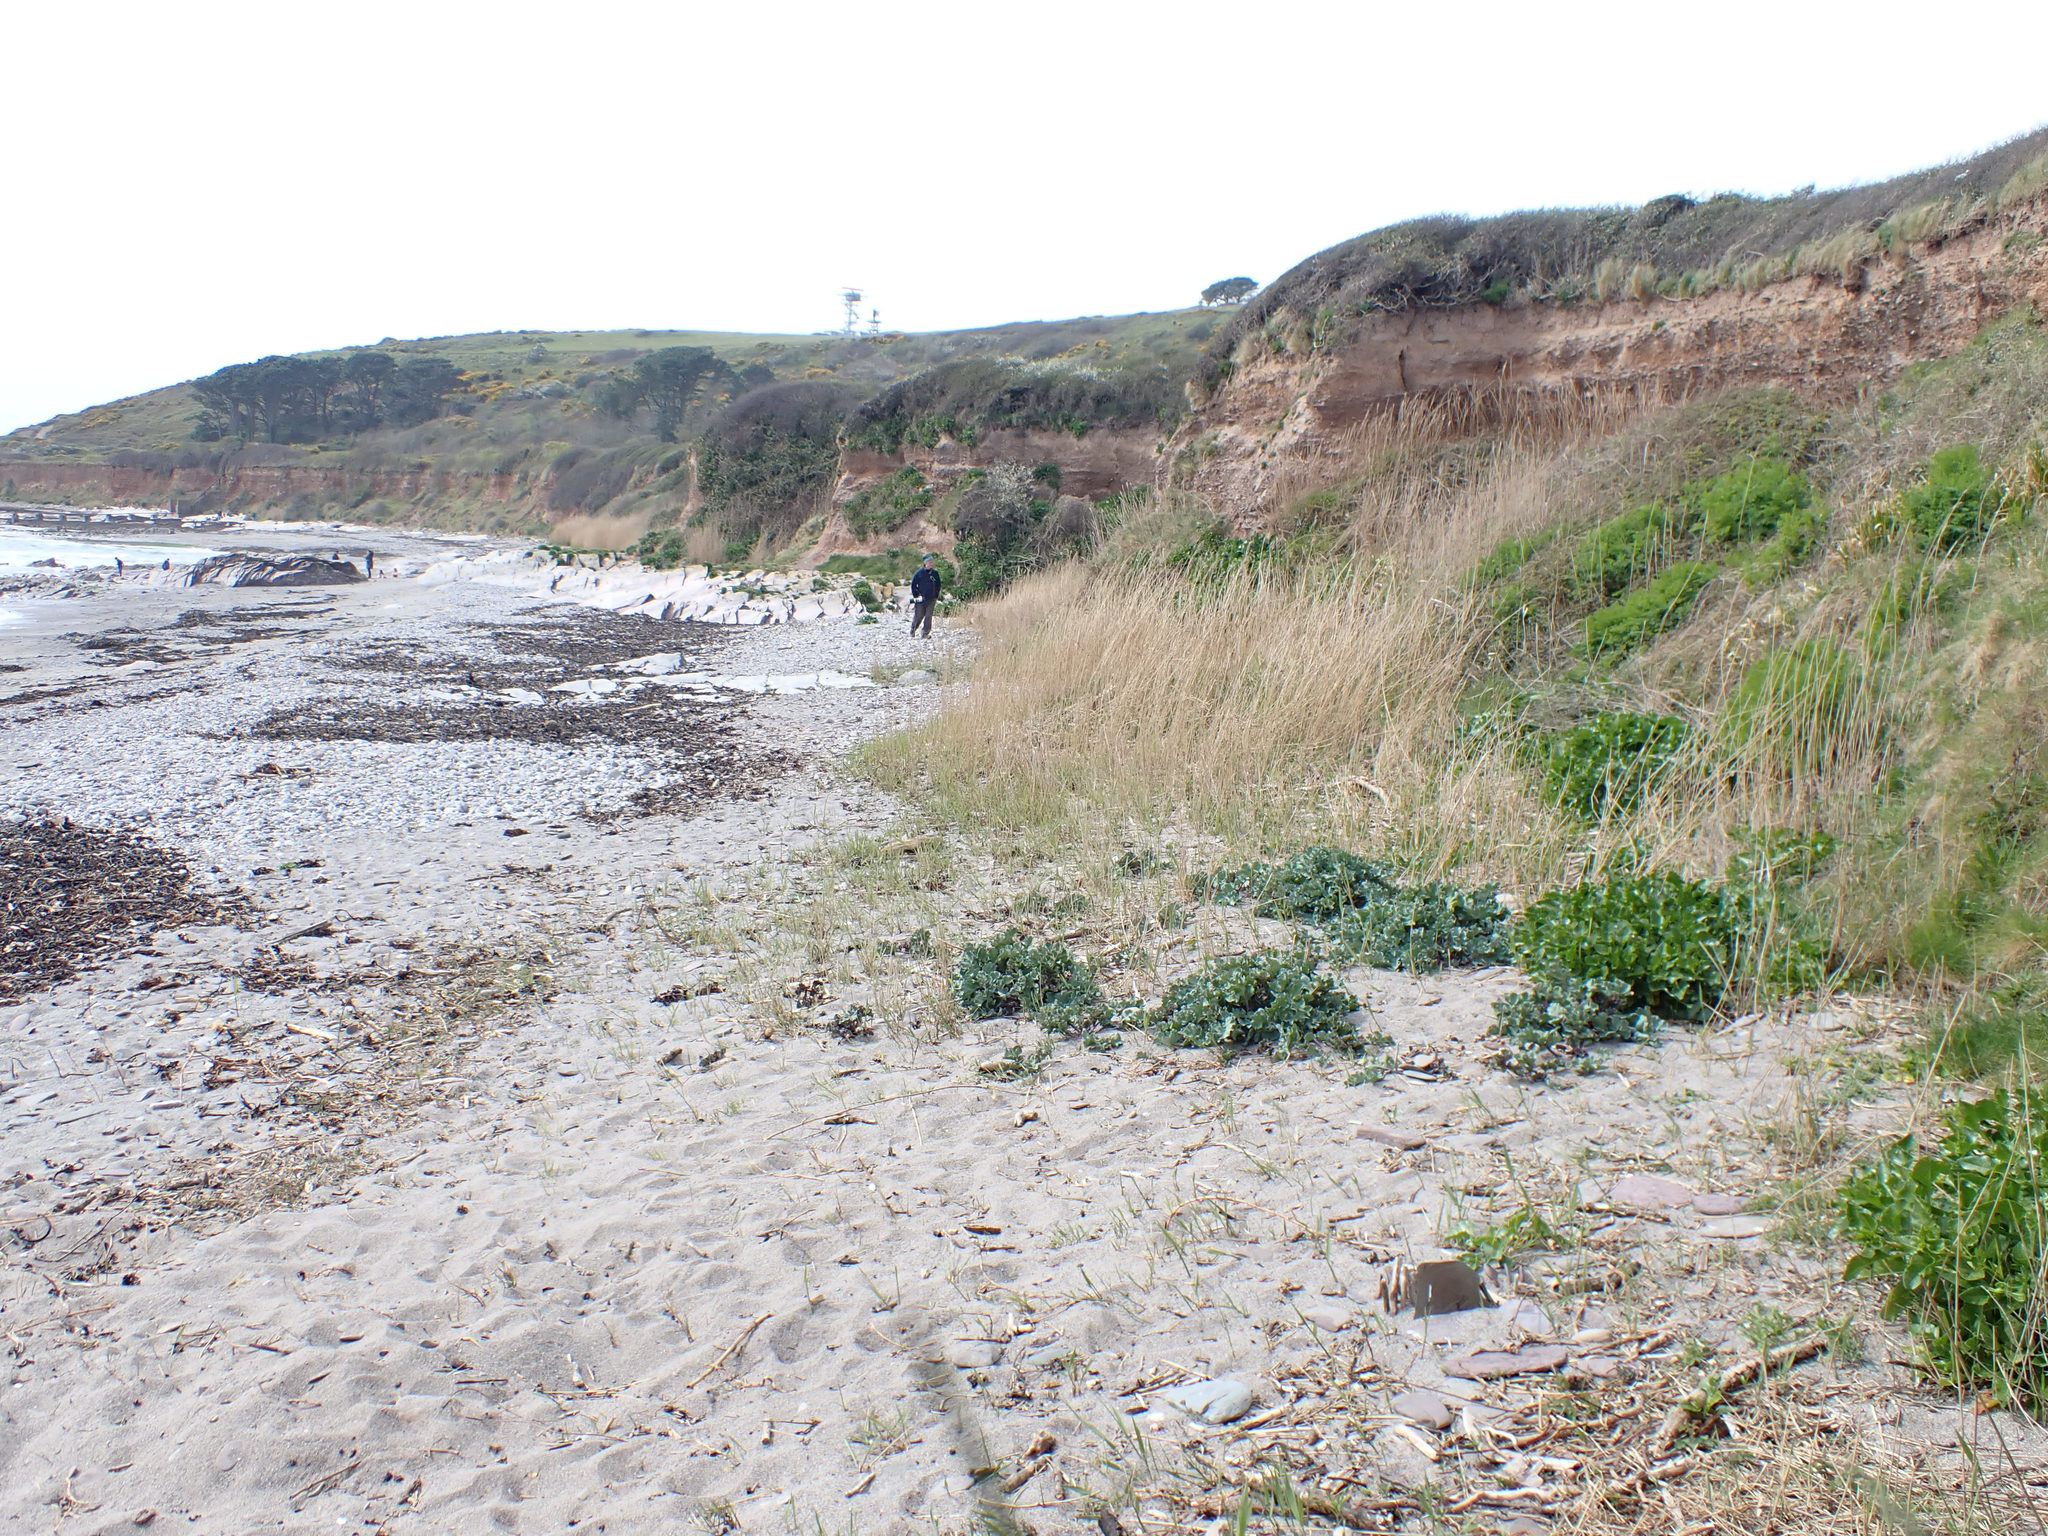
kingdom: Plantae
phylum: Tracheophyta
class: Magnoliopsida
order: Brassicales
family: Brassicaceae
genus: Crambe
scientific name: Crambe maritima
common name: Sea-kale
